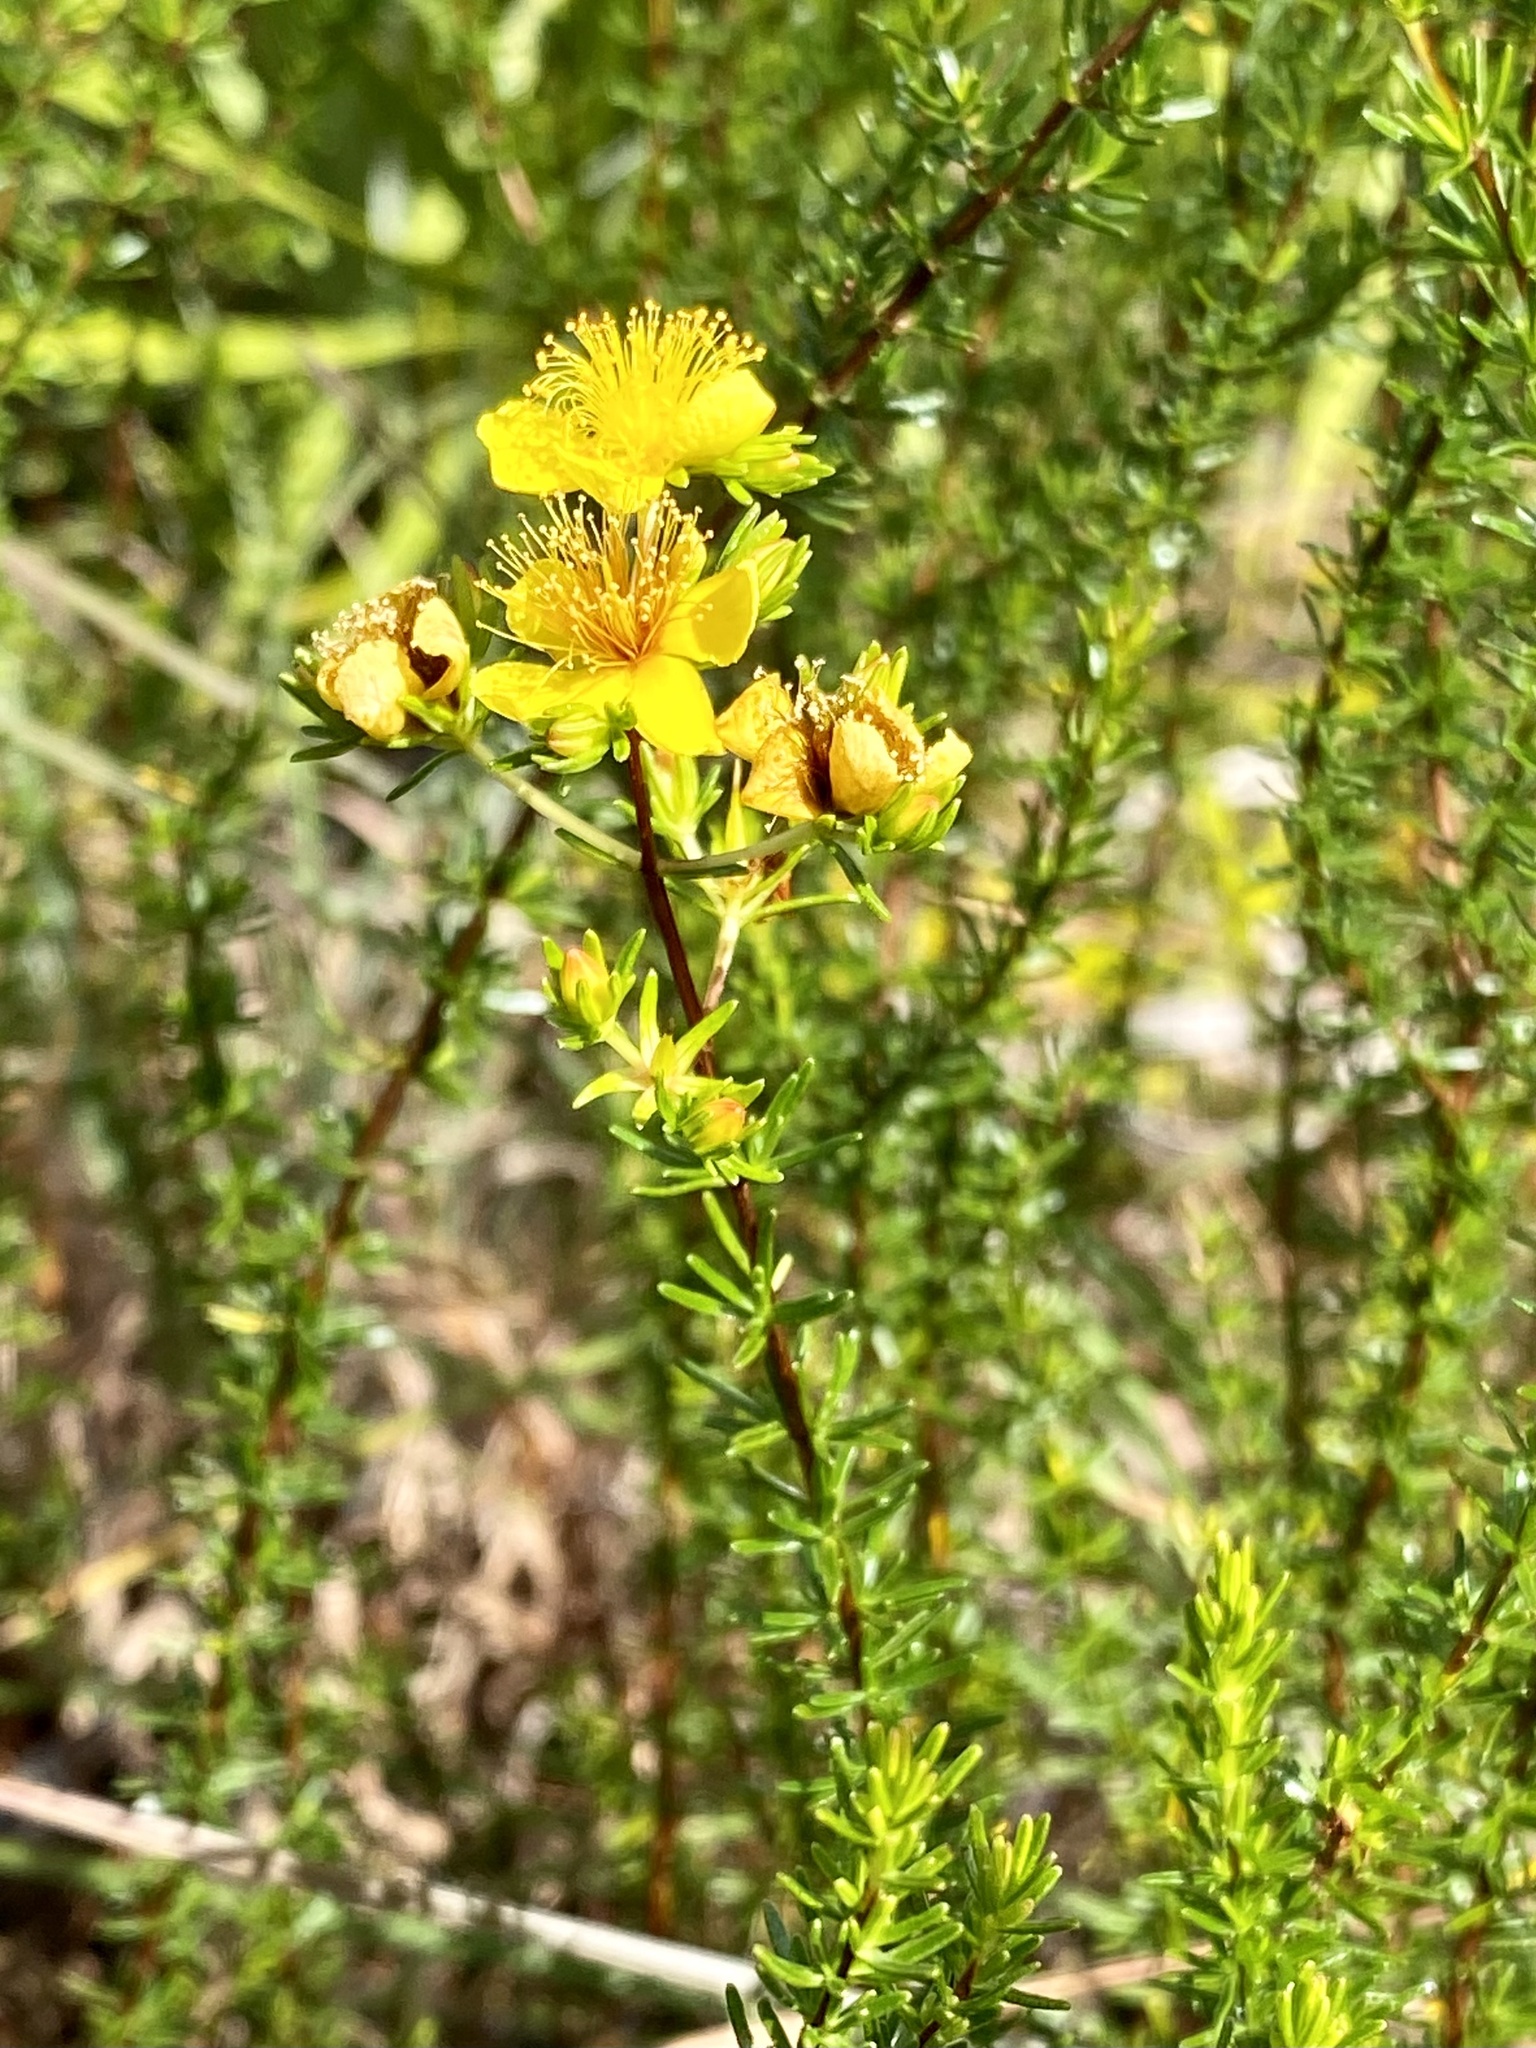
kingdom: Plantae
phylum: Tracheophyta
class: Magnoliopsida
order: Malpighiales
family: Hypericaceae
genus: Hypericum
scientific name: Hypericum tenuifolium
